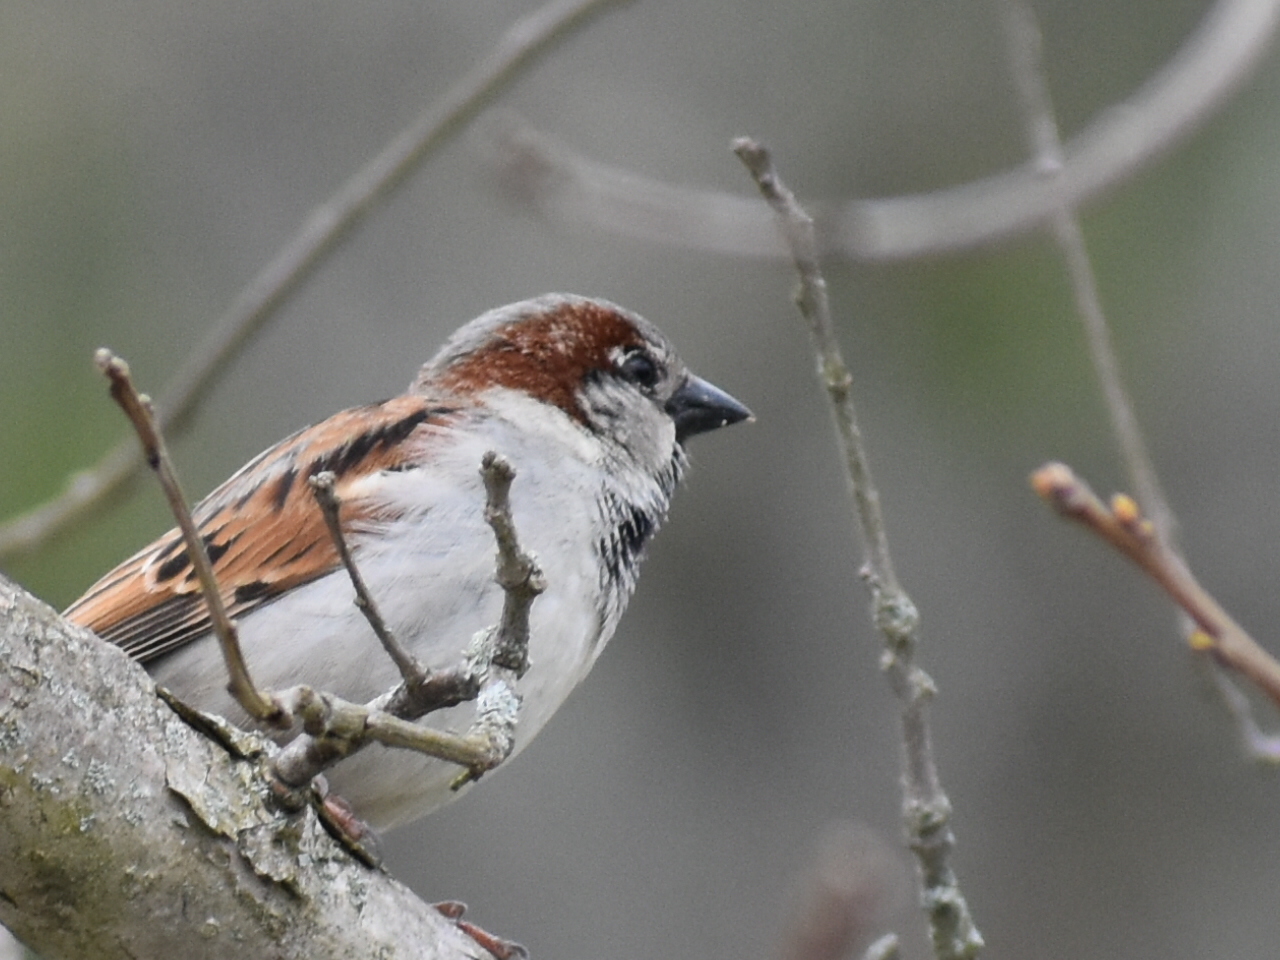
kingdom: Animalia
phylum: Chordata
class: Aves
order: Passeriformes
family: Passeridae
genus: Passer
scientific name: Passer domesticus
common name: House sparrow
